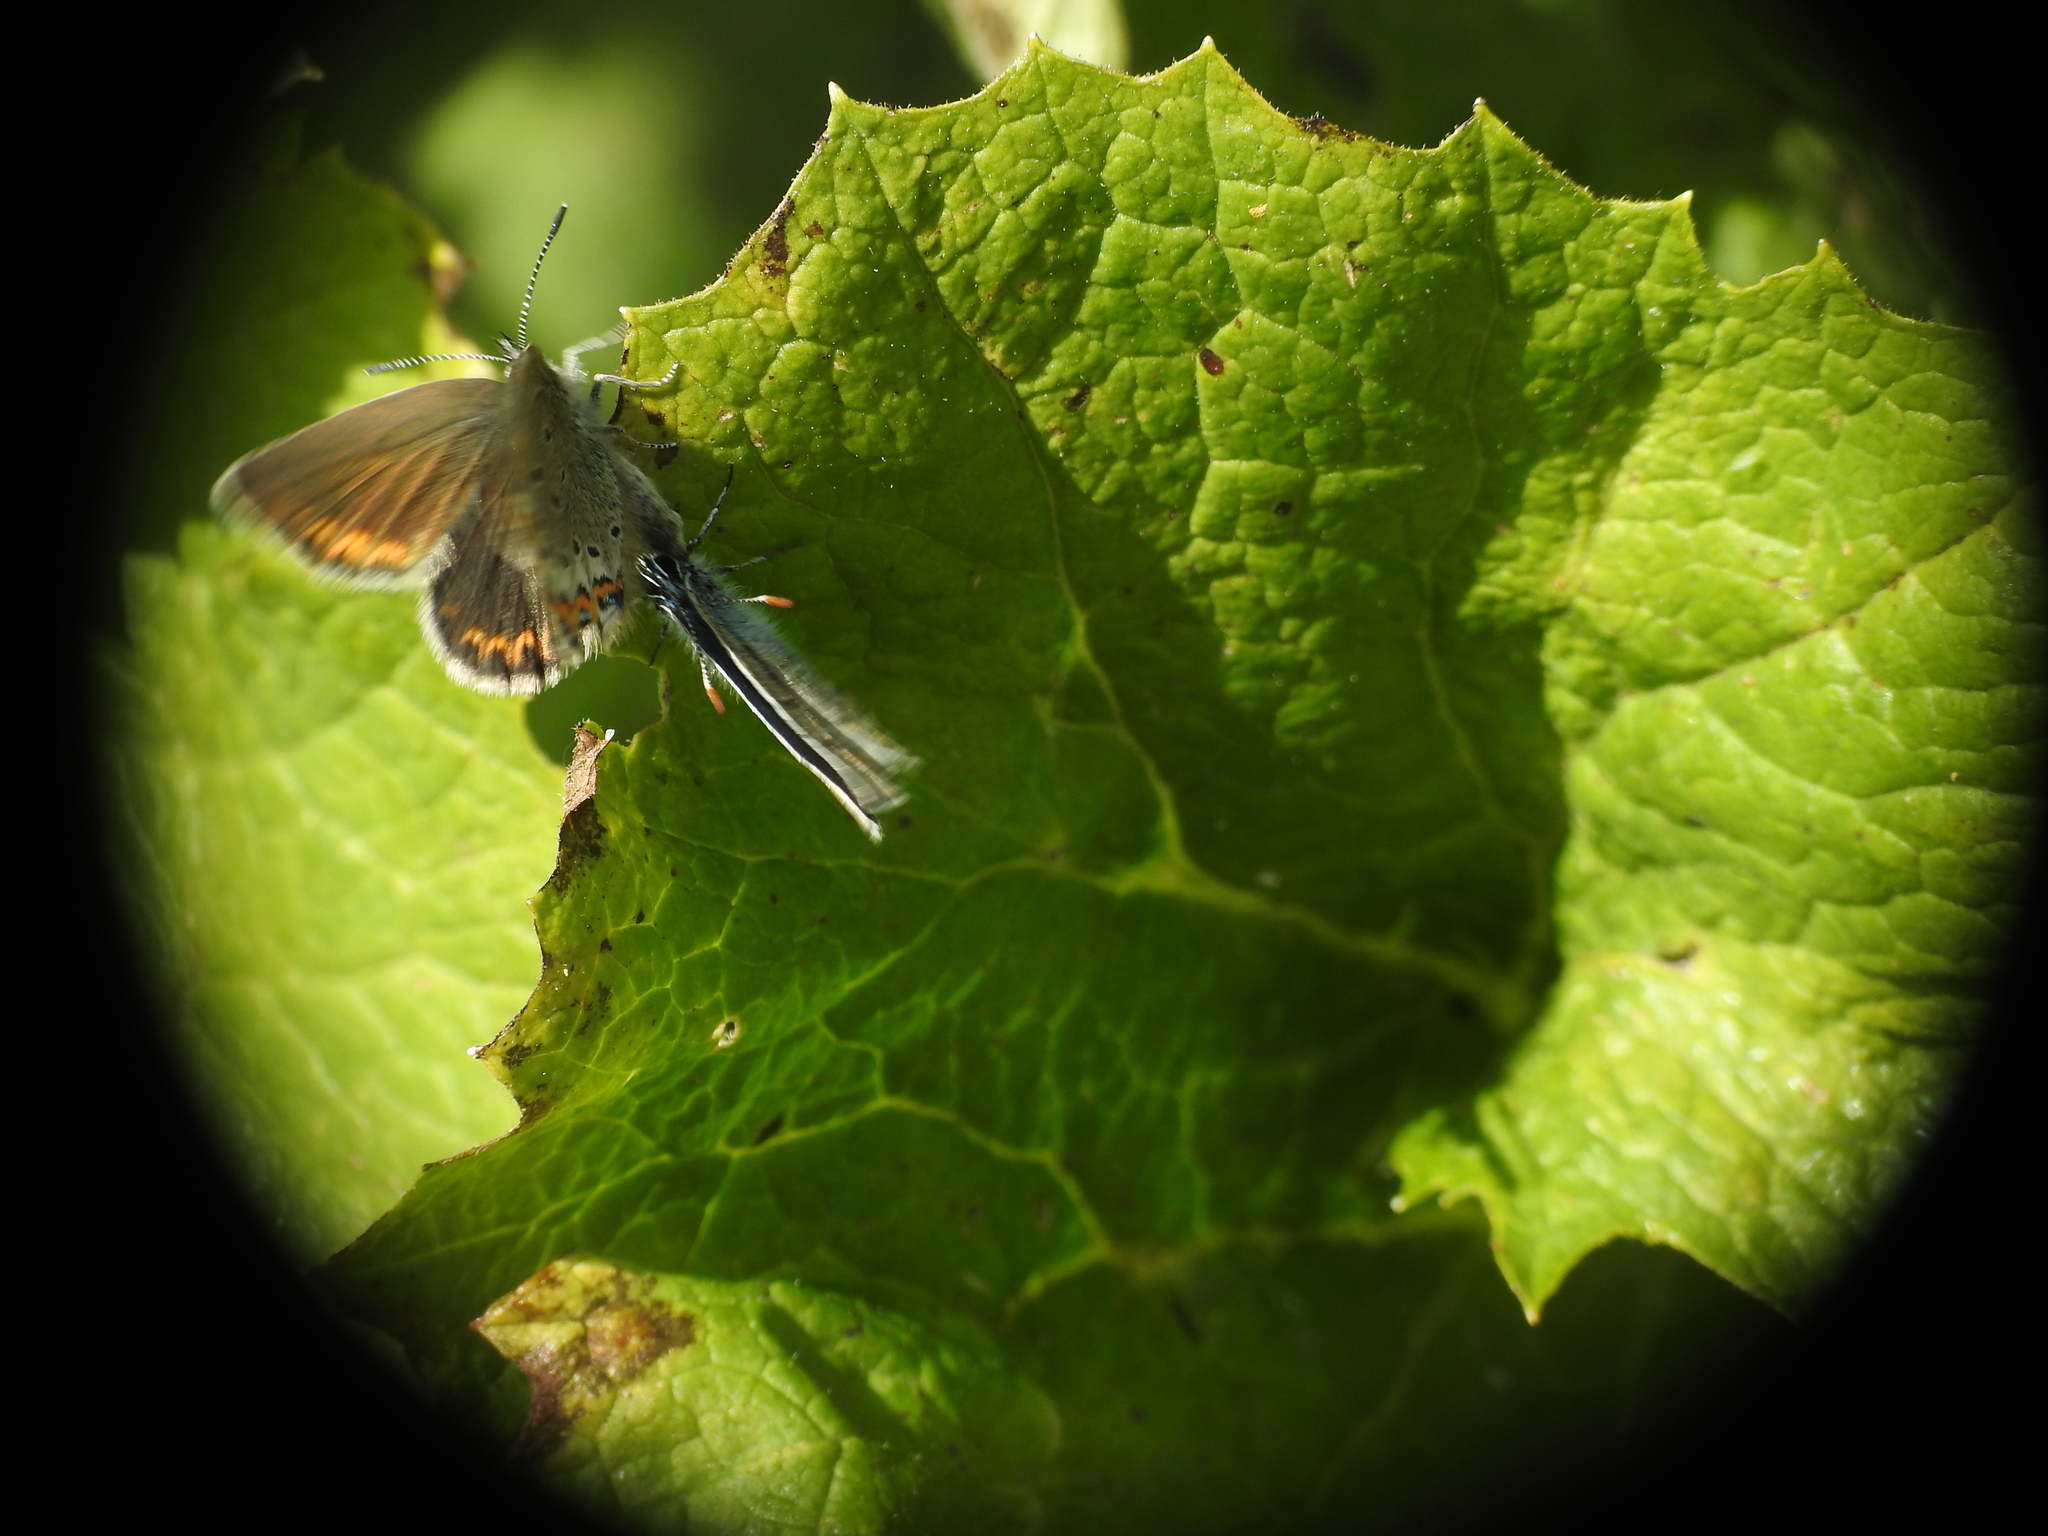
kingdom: Animalia
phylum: Arthropoda
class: Insecta
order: Lepidoptera
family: Lycaenidae
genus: Lycaeides
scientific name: Lycaeides idas
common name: Northern blue
